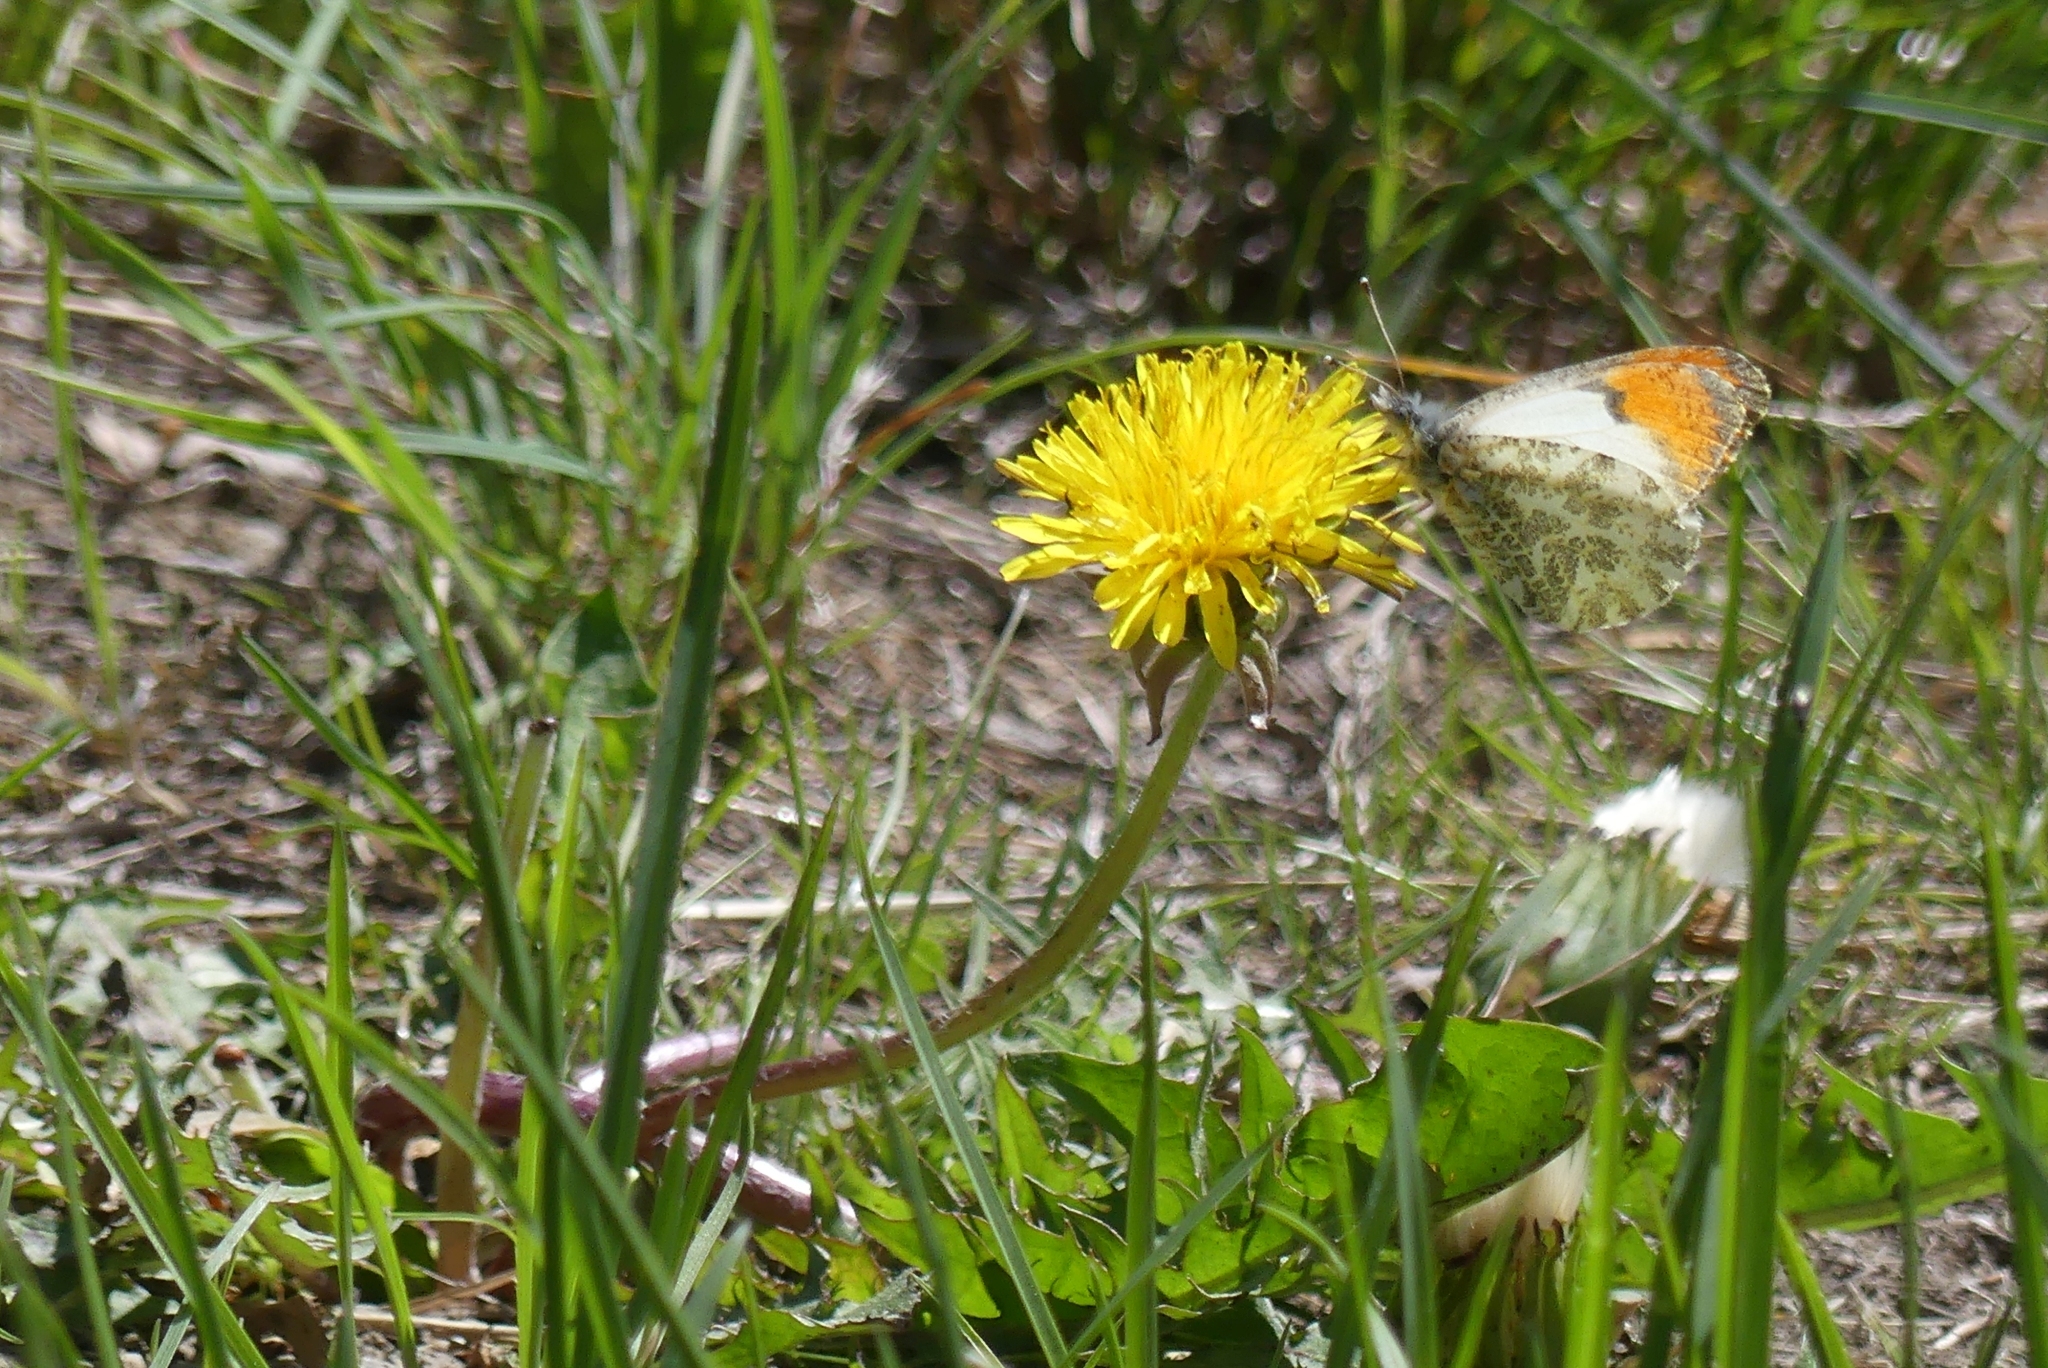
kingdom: Animalia
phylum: Arthropoda
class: Insecta
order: Lepidoptera
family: Pieridae
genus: Anthocharis
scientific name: Anthocharis julia
